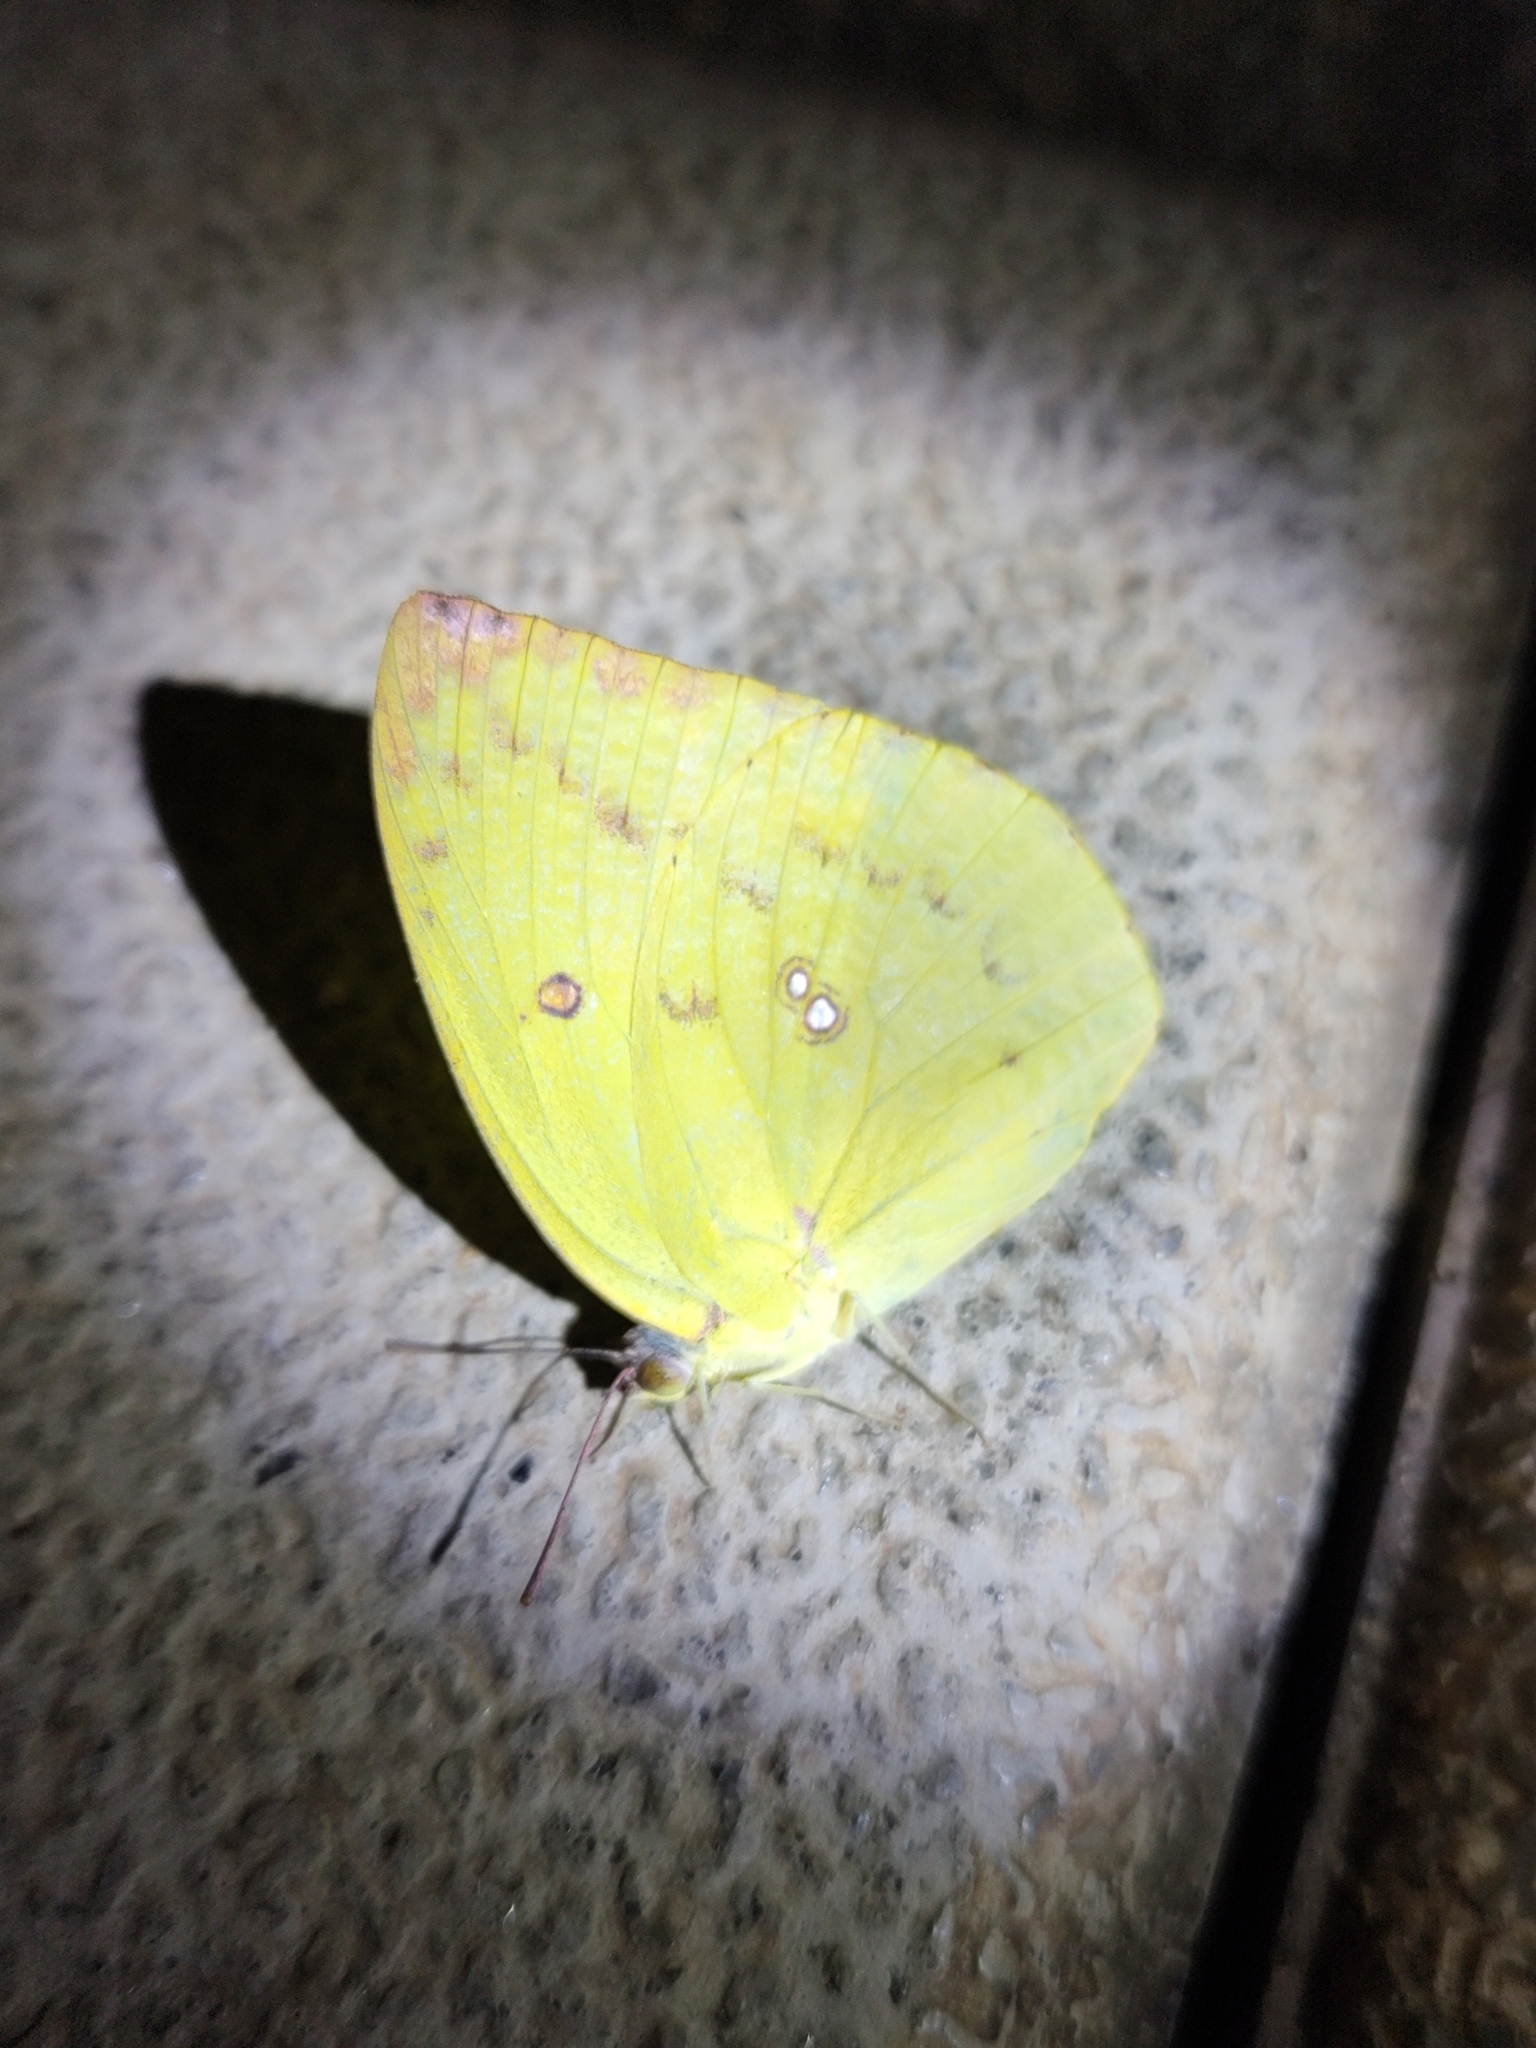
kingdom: Animalia
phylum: Arthropoda
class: Insecta
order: Lepidoptera
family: Pieridae
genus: Catopsilia
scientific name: Catopsilia pomona
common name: Common emigrant
